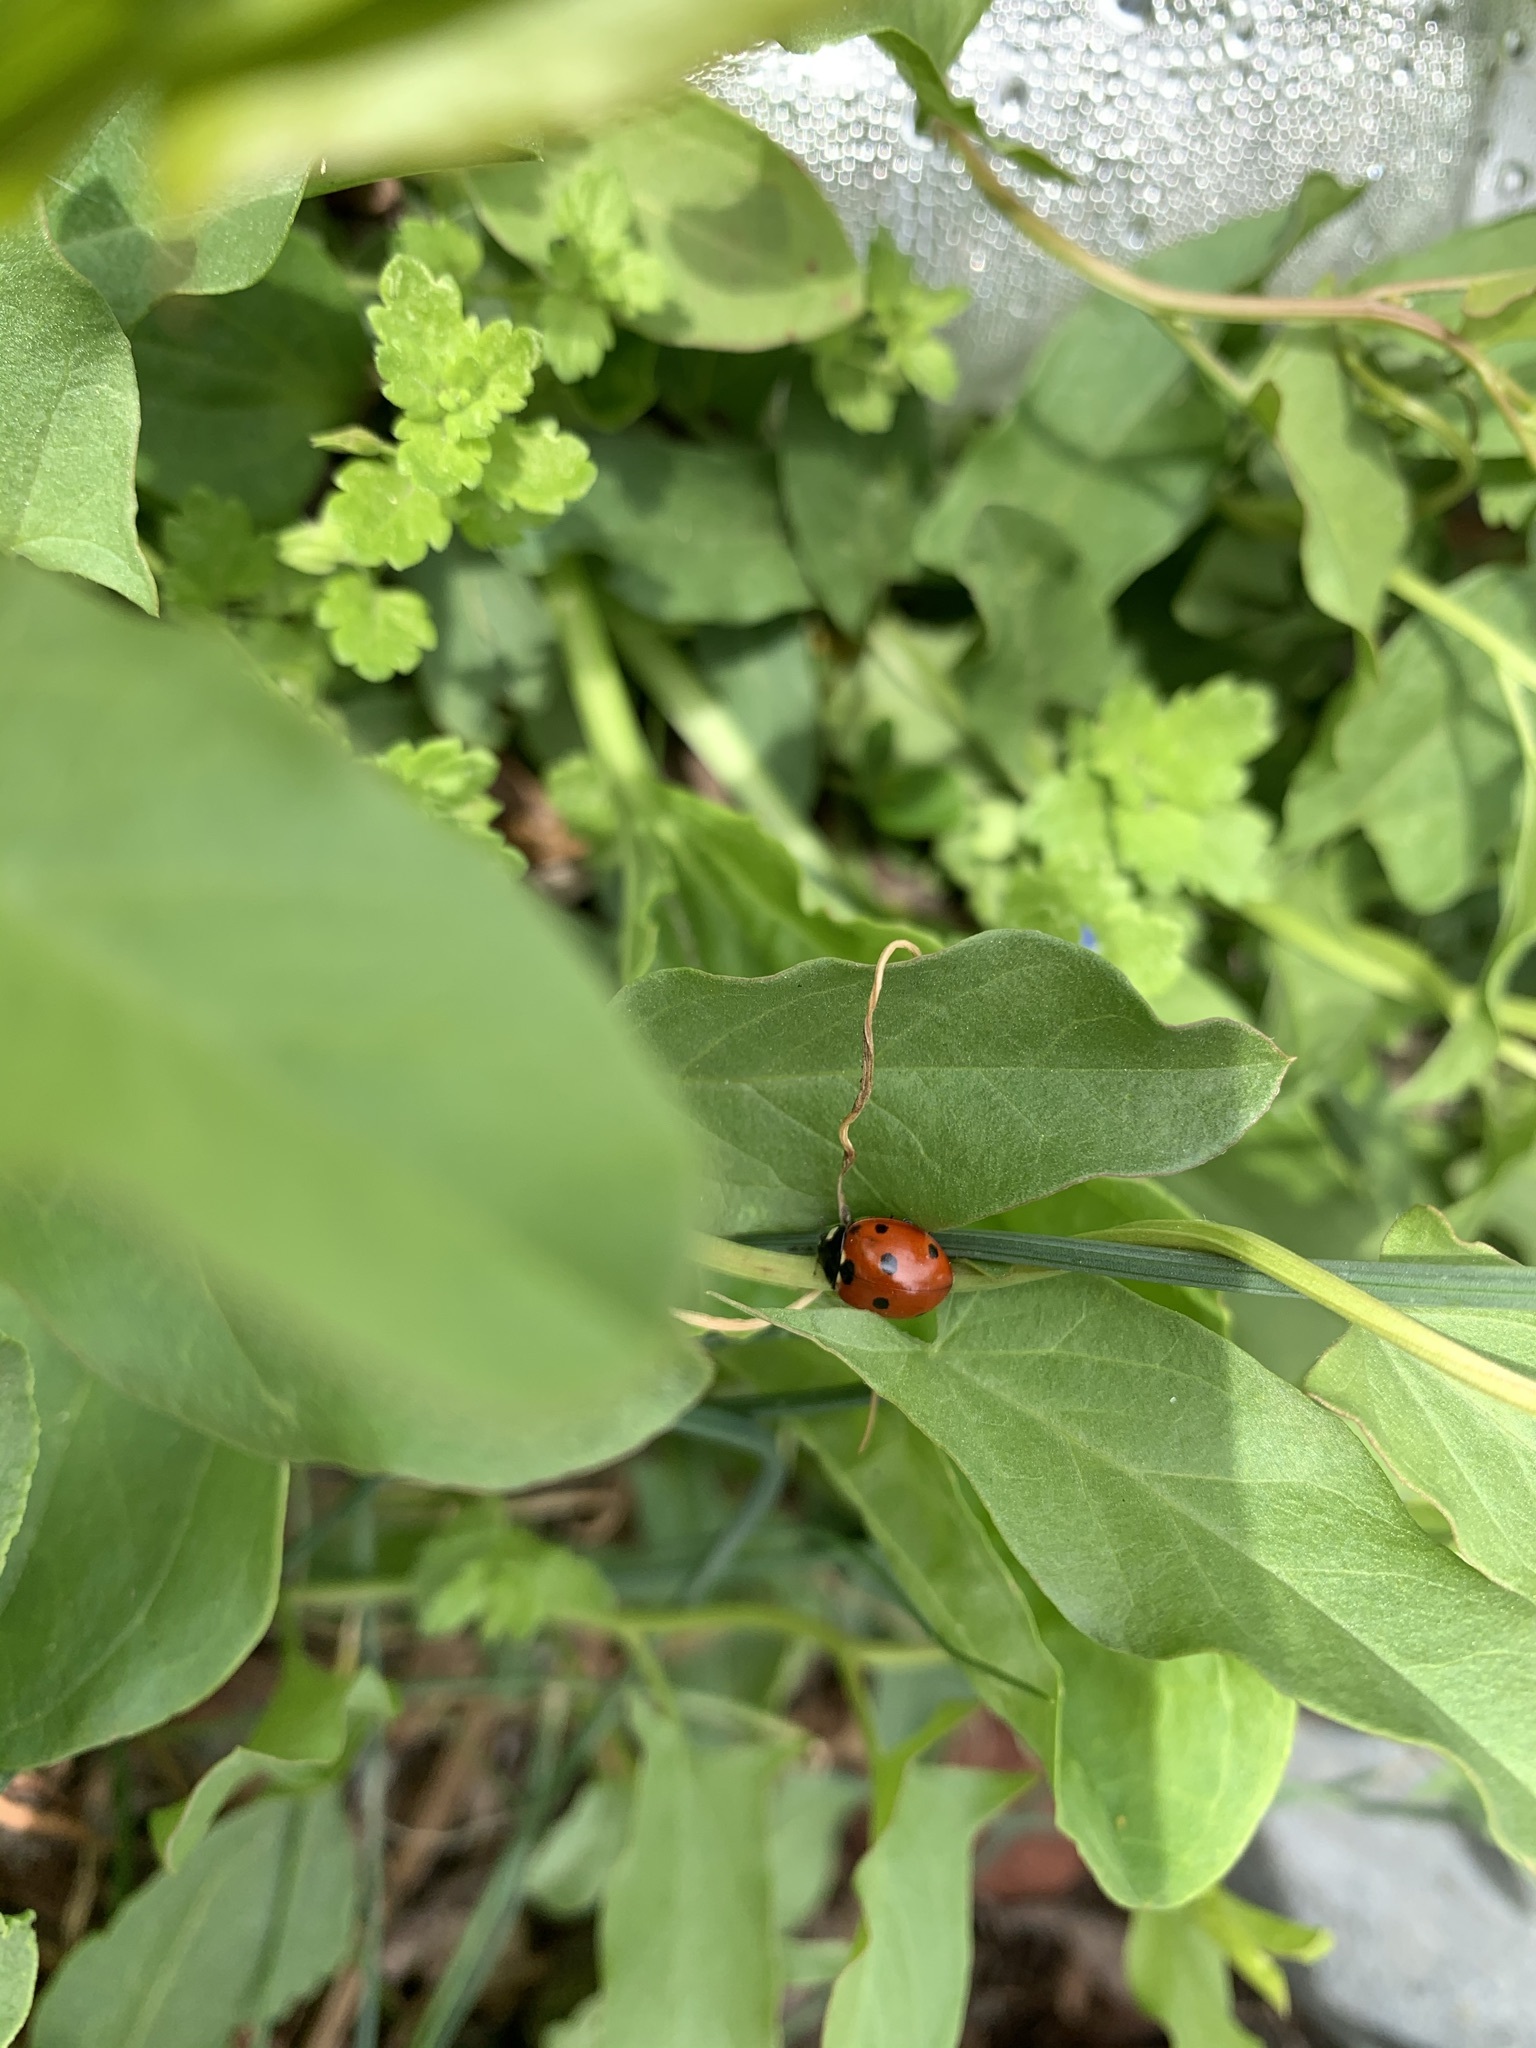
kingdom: Animalia
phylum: Arthropoda
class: Insecta
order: Coleoptera
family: Coccinellidae
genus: Coccinella
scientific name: Coccinella septempunctata
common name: Sevenspotted lady beetle
